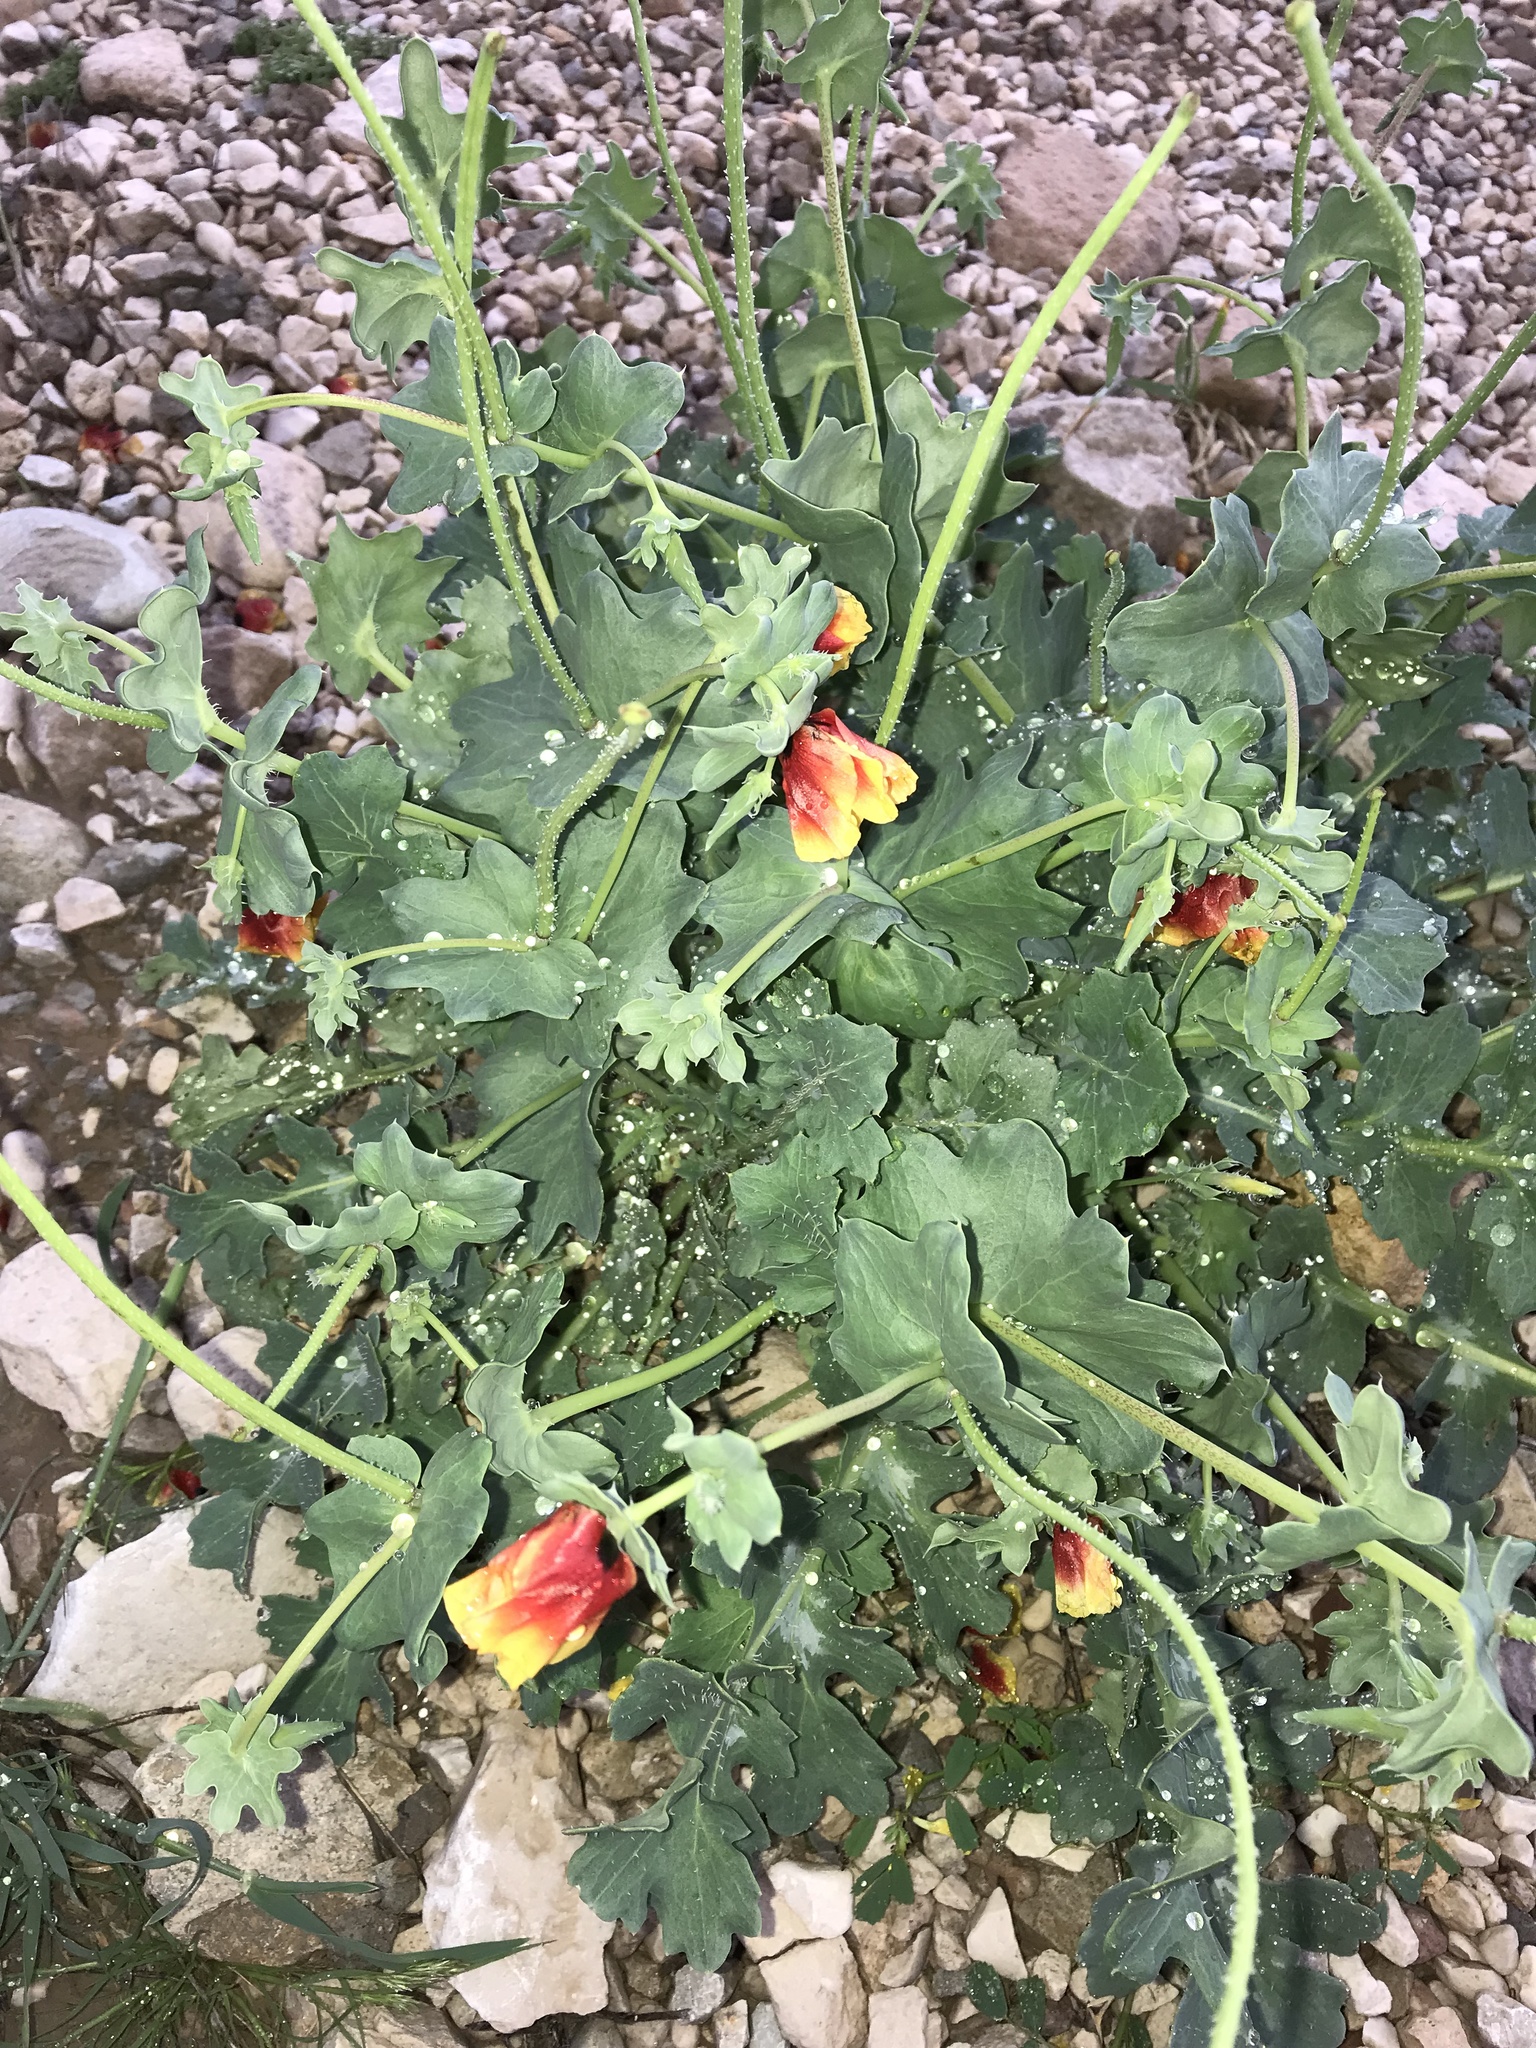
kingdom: Plantae
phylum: Tracheophyta
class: Magnoliopsida
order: Ranunculales
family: Papaveraceae
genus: Glaucium
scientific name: Glaucium elegans
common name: Annual horned-poppy
